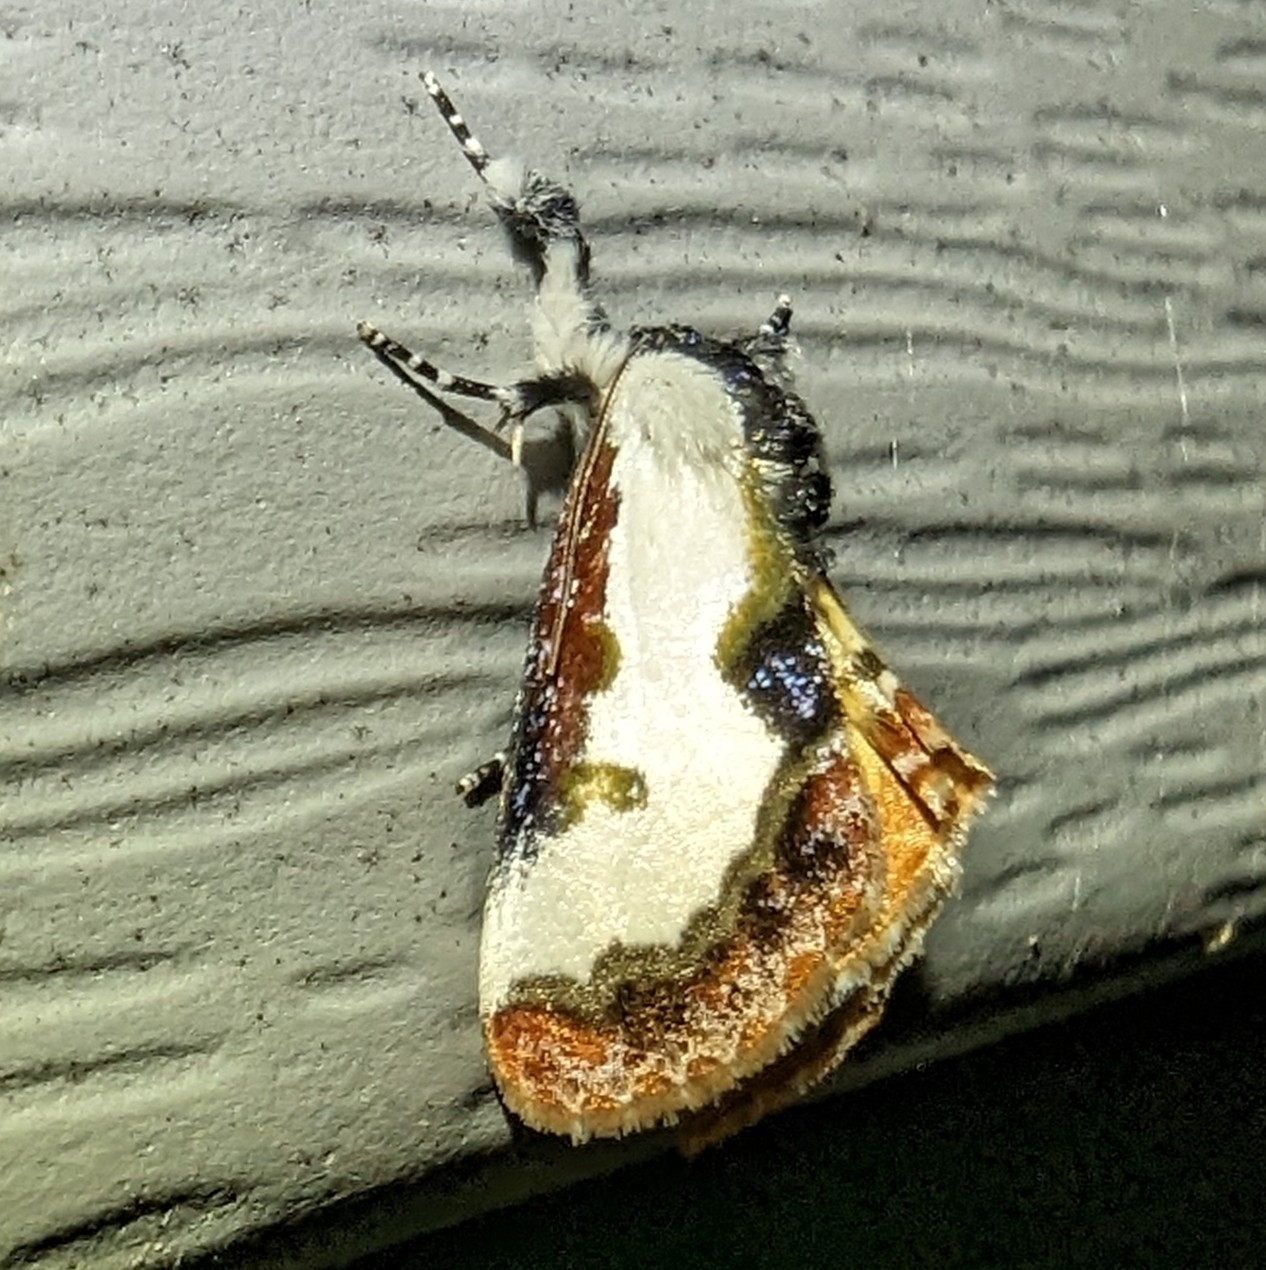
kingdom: Animalia
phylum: Arthropoda
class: Insecta
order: Lepidoptera
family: Noctuidae
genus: Eudryas
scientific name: Eudryas unio
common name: Pearly wood-nymph
